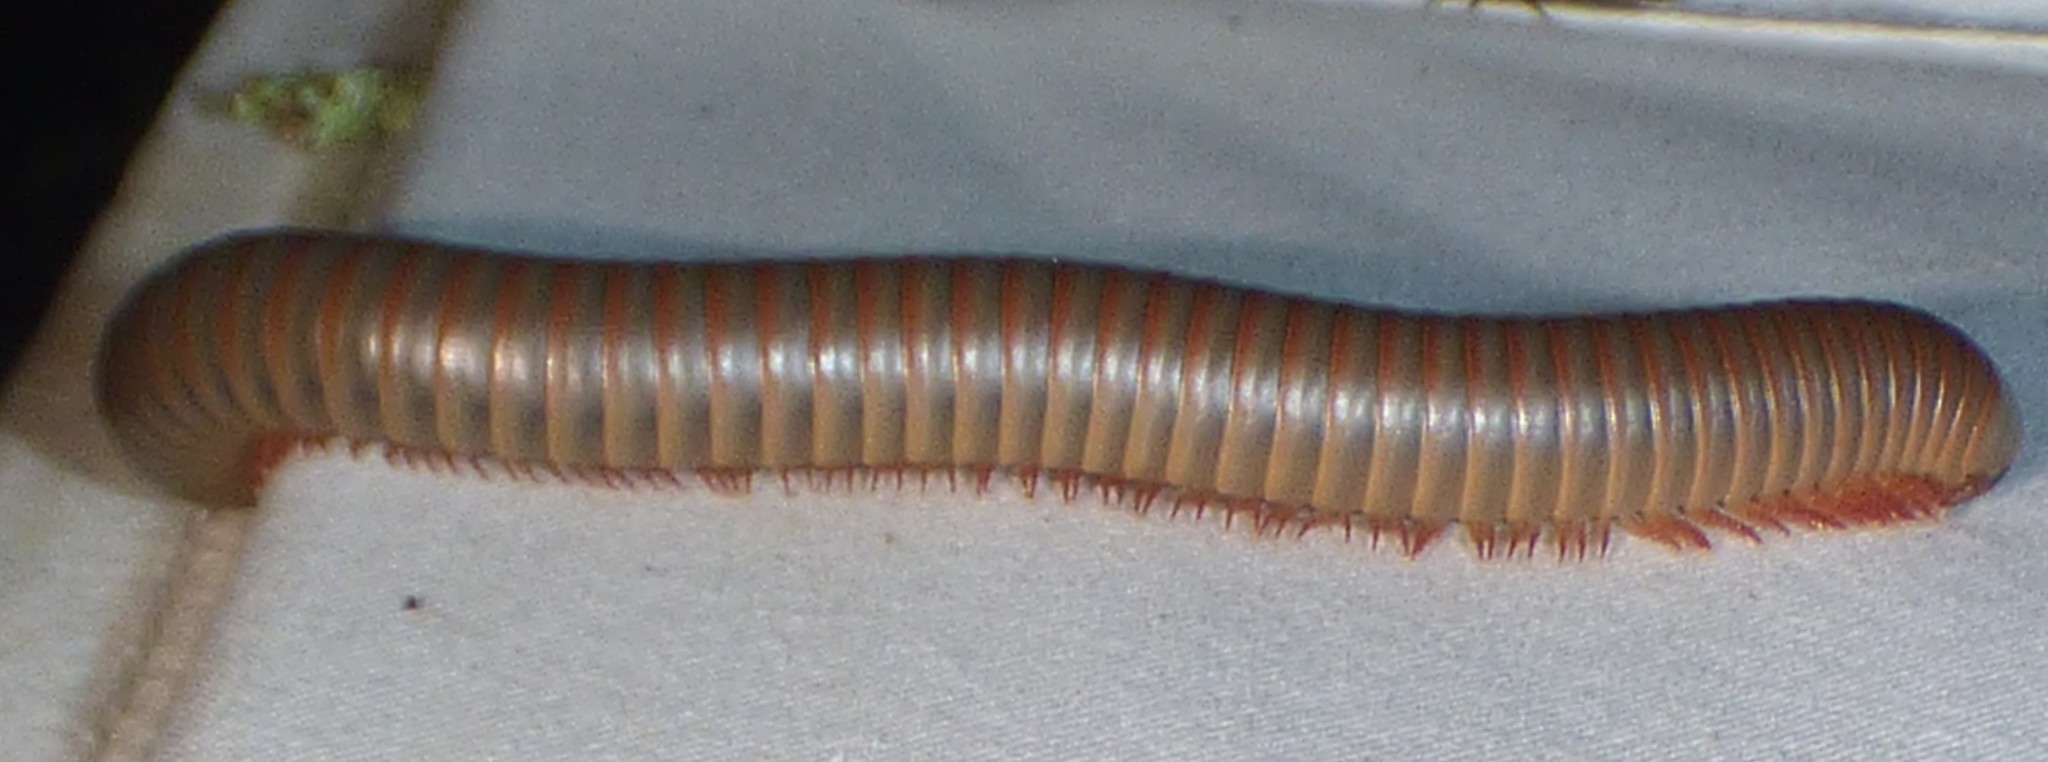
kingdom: Animalia
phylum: Arthropoda
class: Diplopoda
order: Spirobolida
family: Spirobolidae
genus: Narceus
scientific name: Narceus
